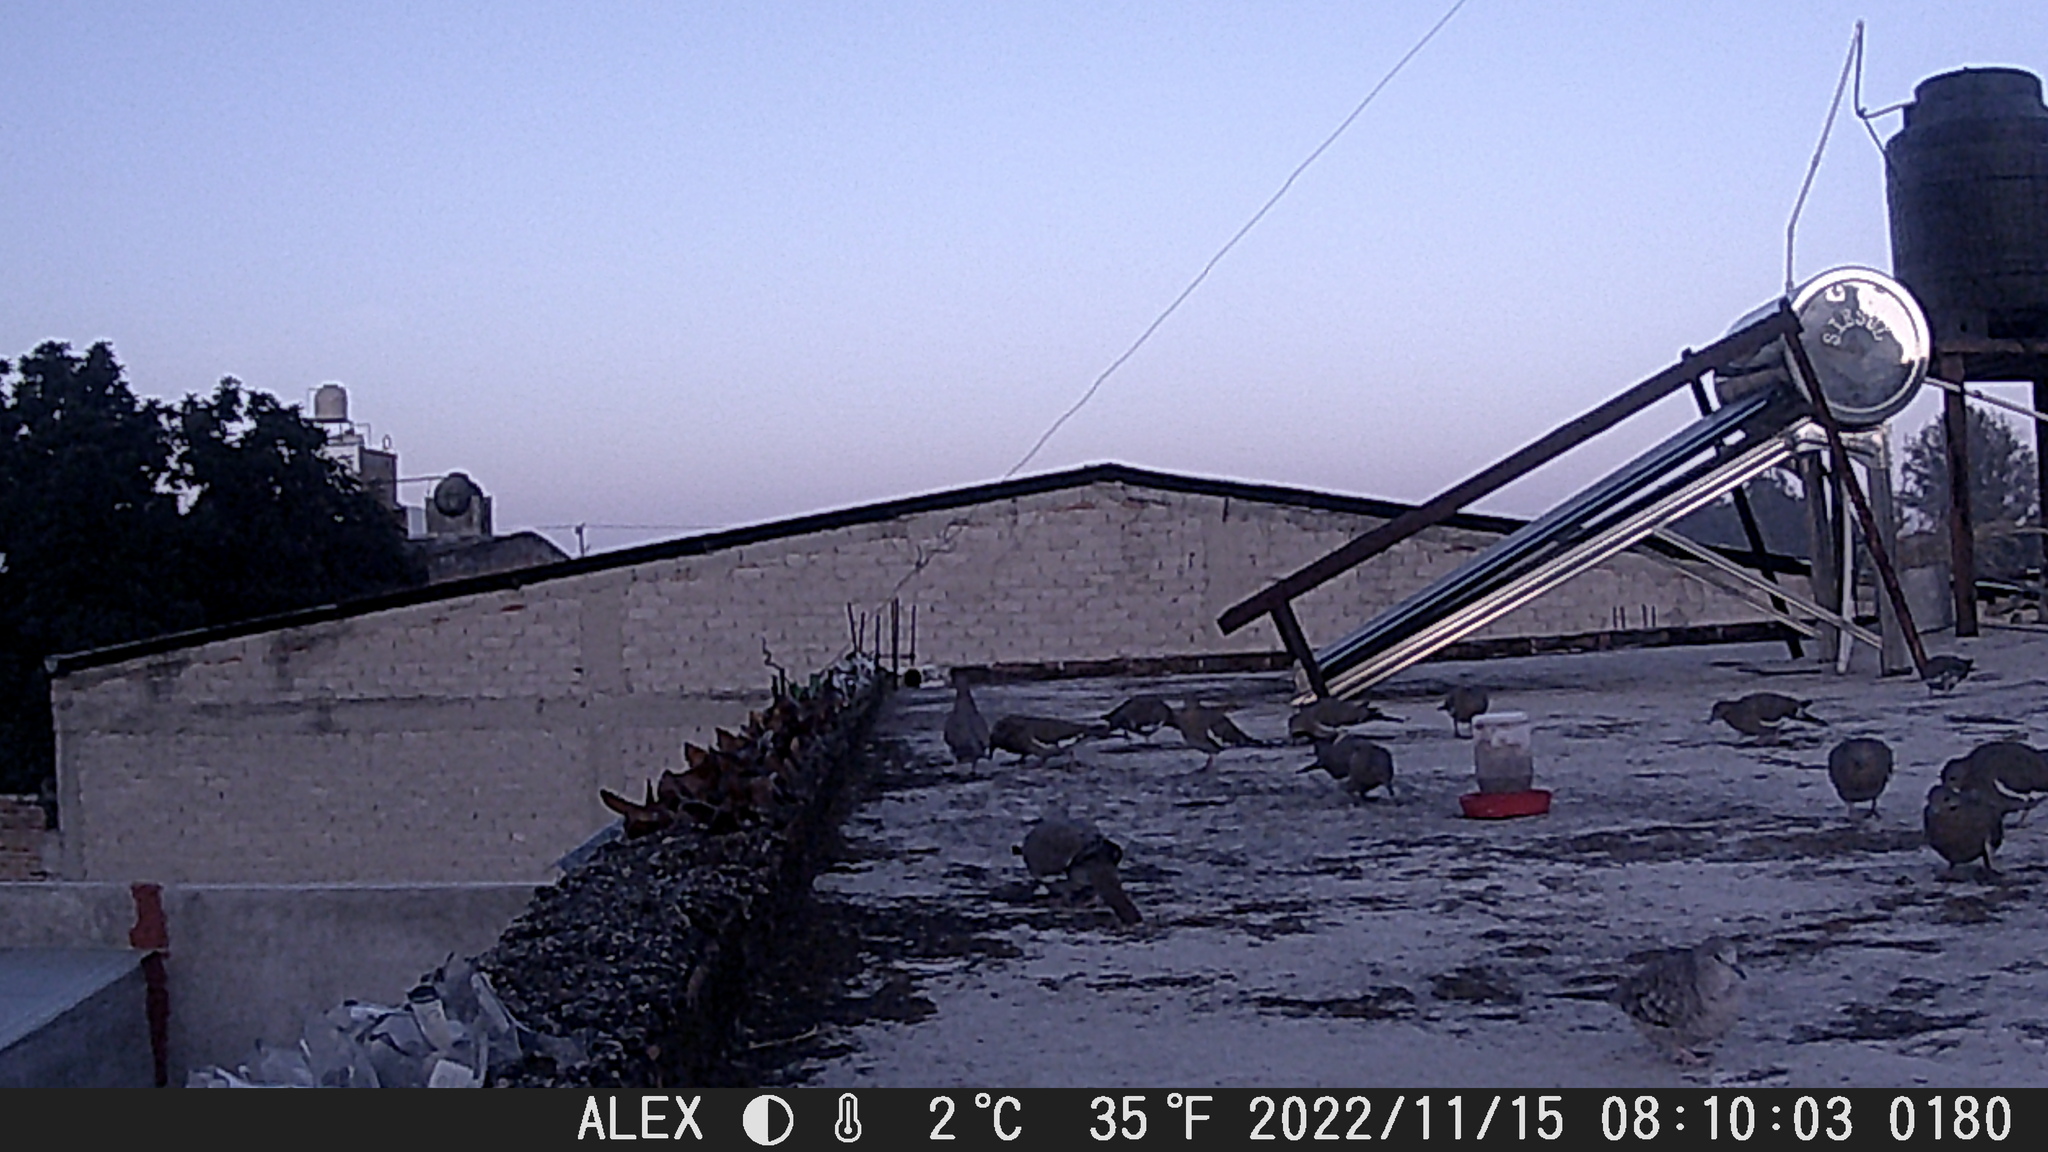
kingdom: Animalia
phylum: Chordata
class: Aves
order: Columbiformes
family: Columbidae
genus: Columbina
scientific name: Columbina inca
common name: Inca dove
